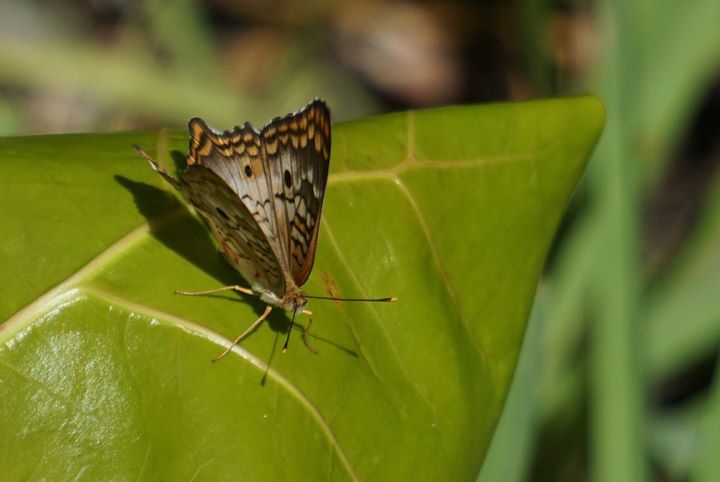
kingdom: Animalia
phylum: Arthropoda
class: Insecta
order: Lepidoptera
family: Nymphalidae
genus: Anartia
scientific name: Anartia jatrophae
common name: White peacock
